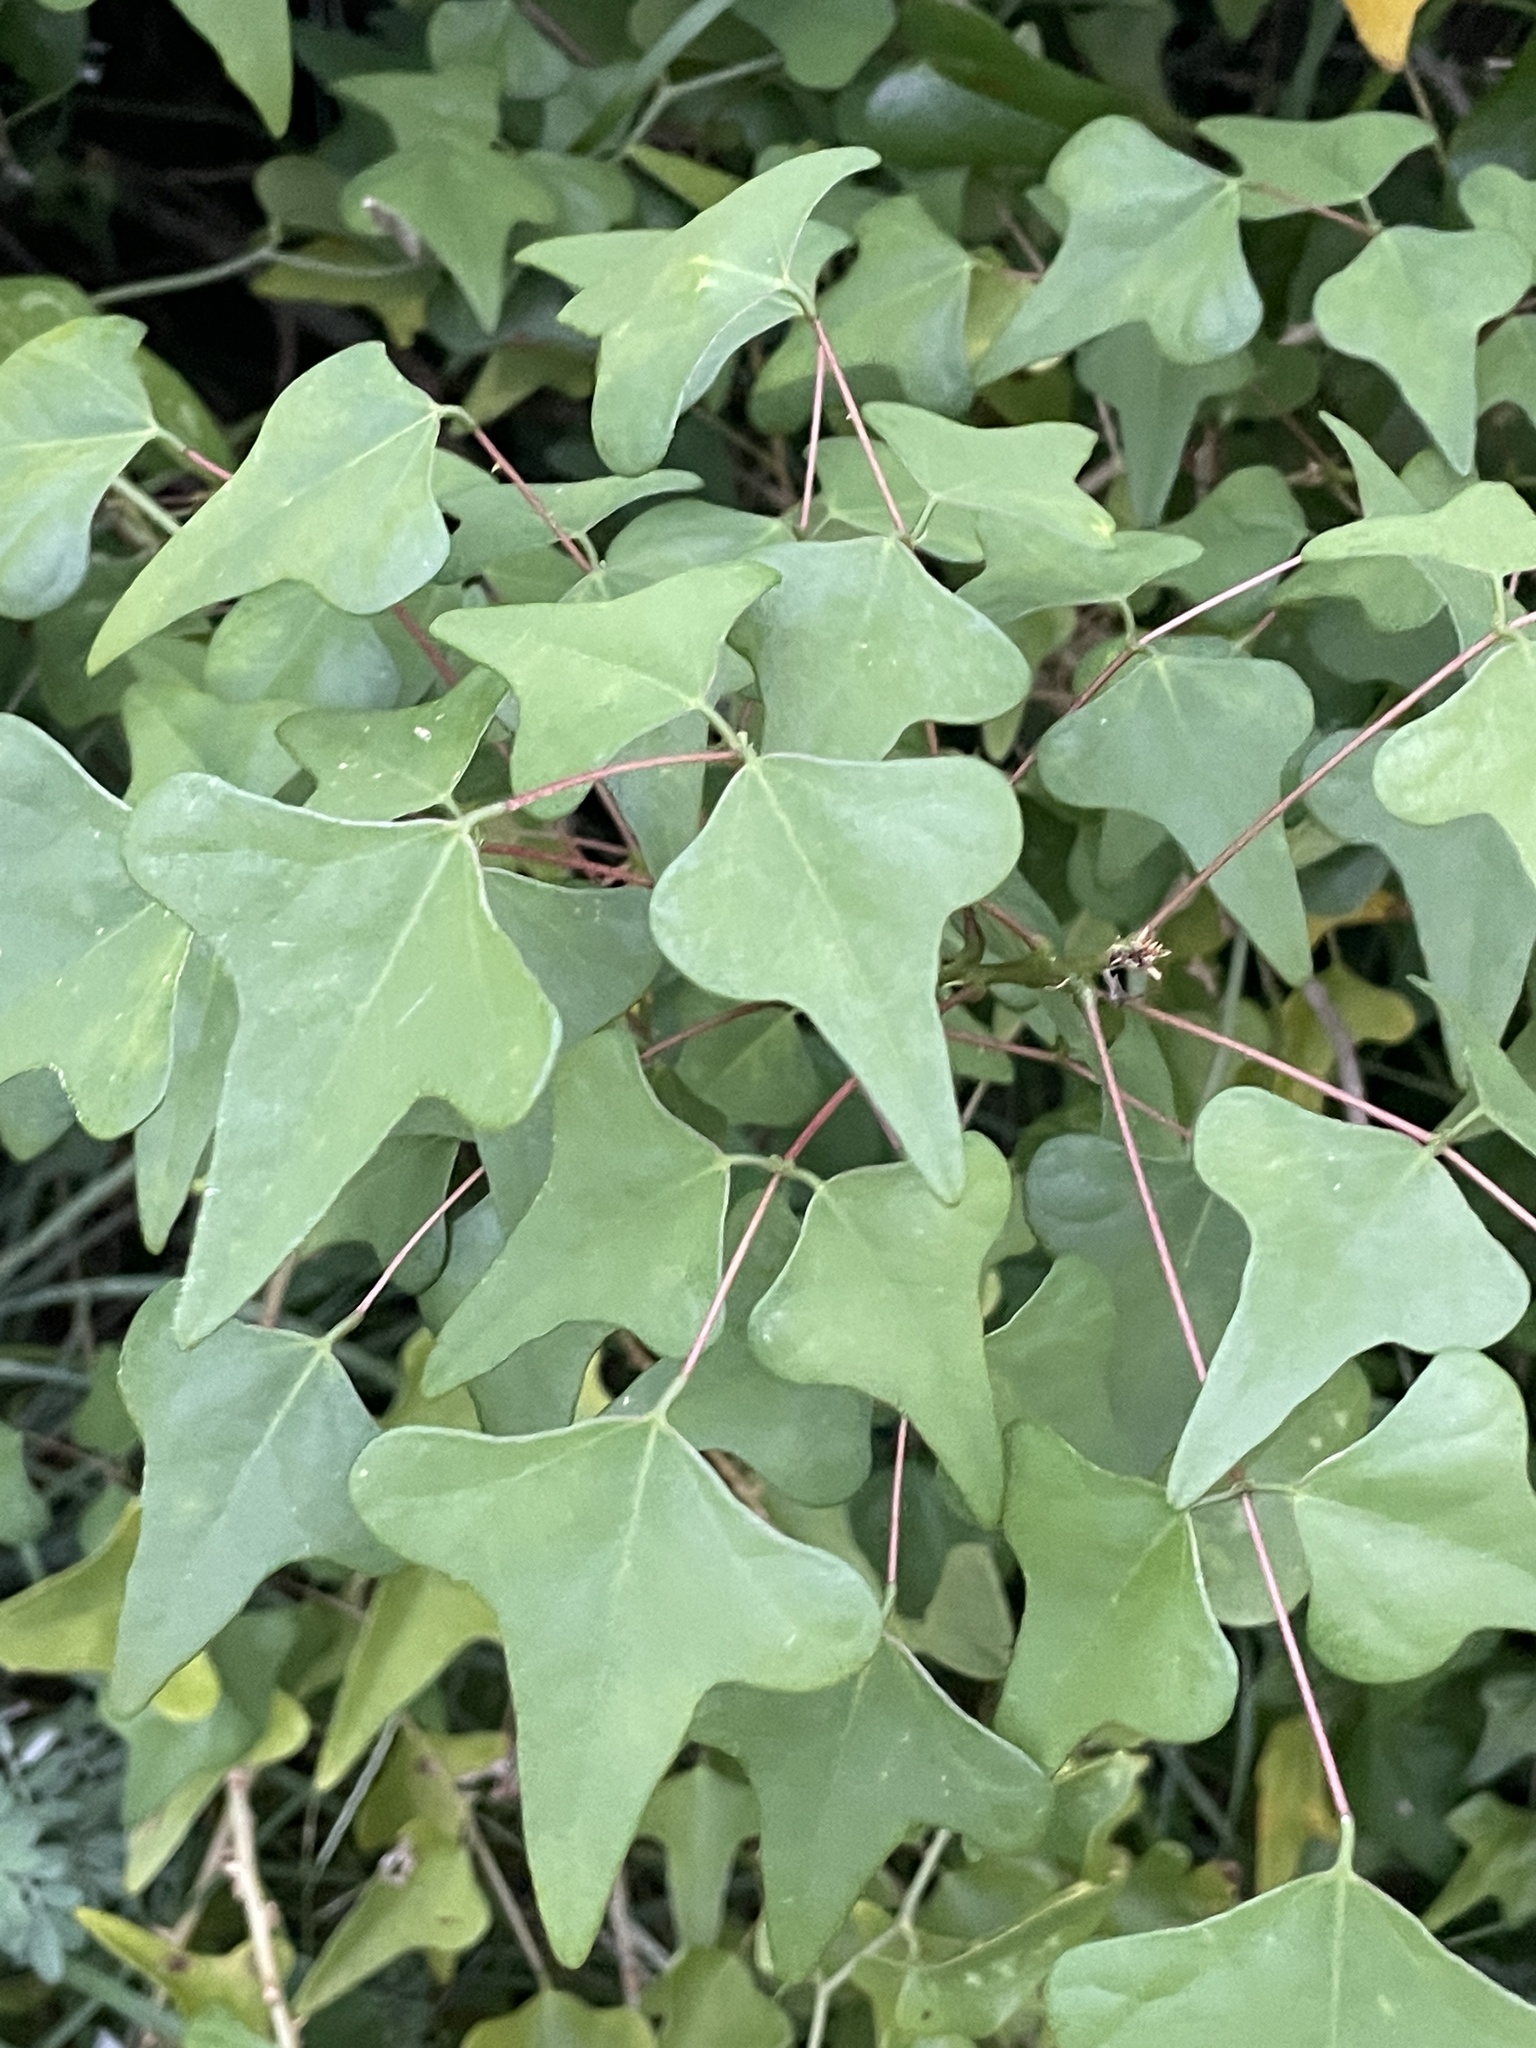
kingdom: Plantae
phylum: Tracheophyta
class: Magnoliopsida
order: Fabales
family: Fabaceae
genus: Erythrina
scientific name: Erythrina herbacea
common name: Coral-bean
